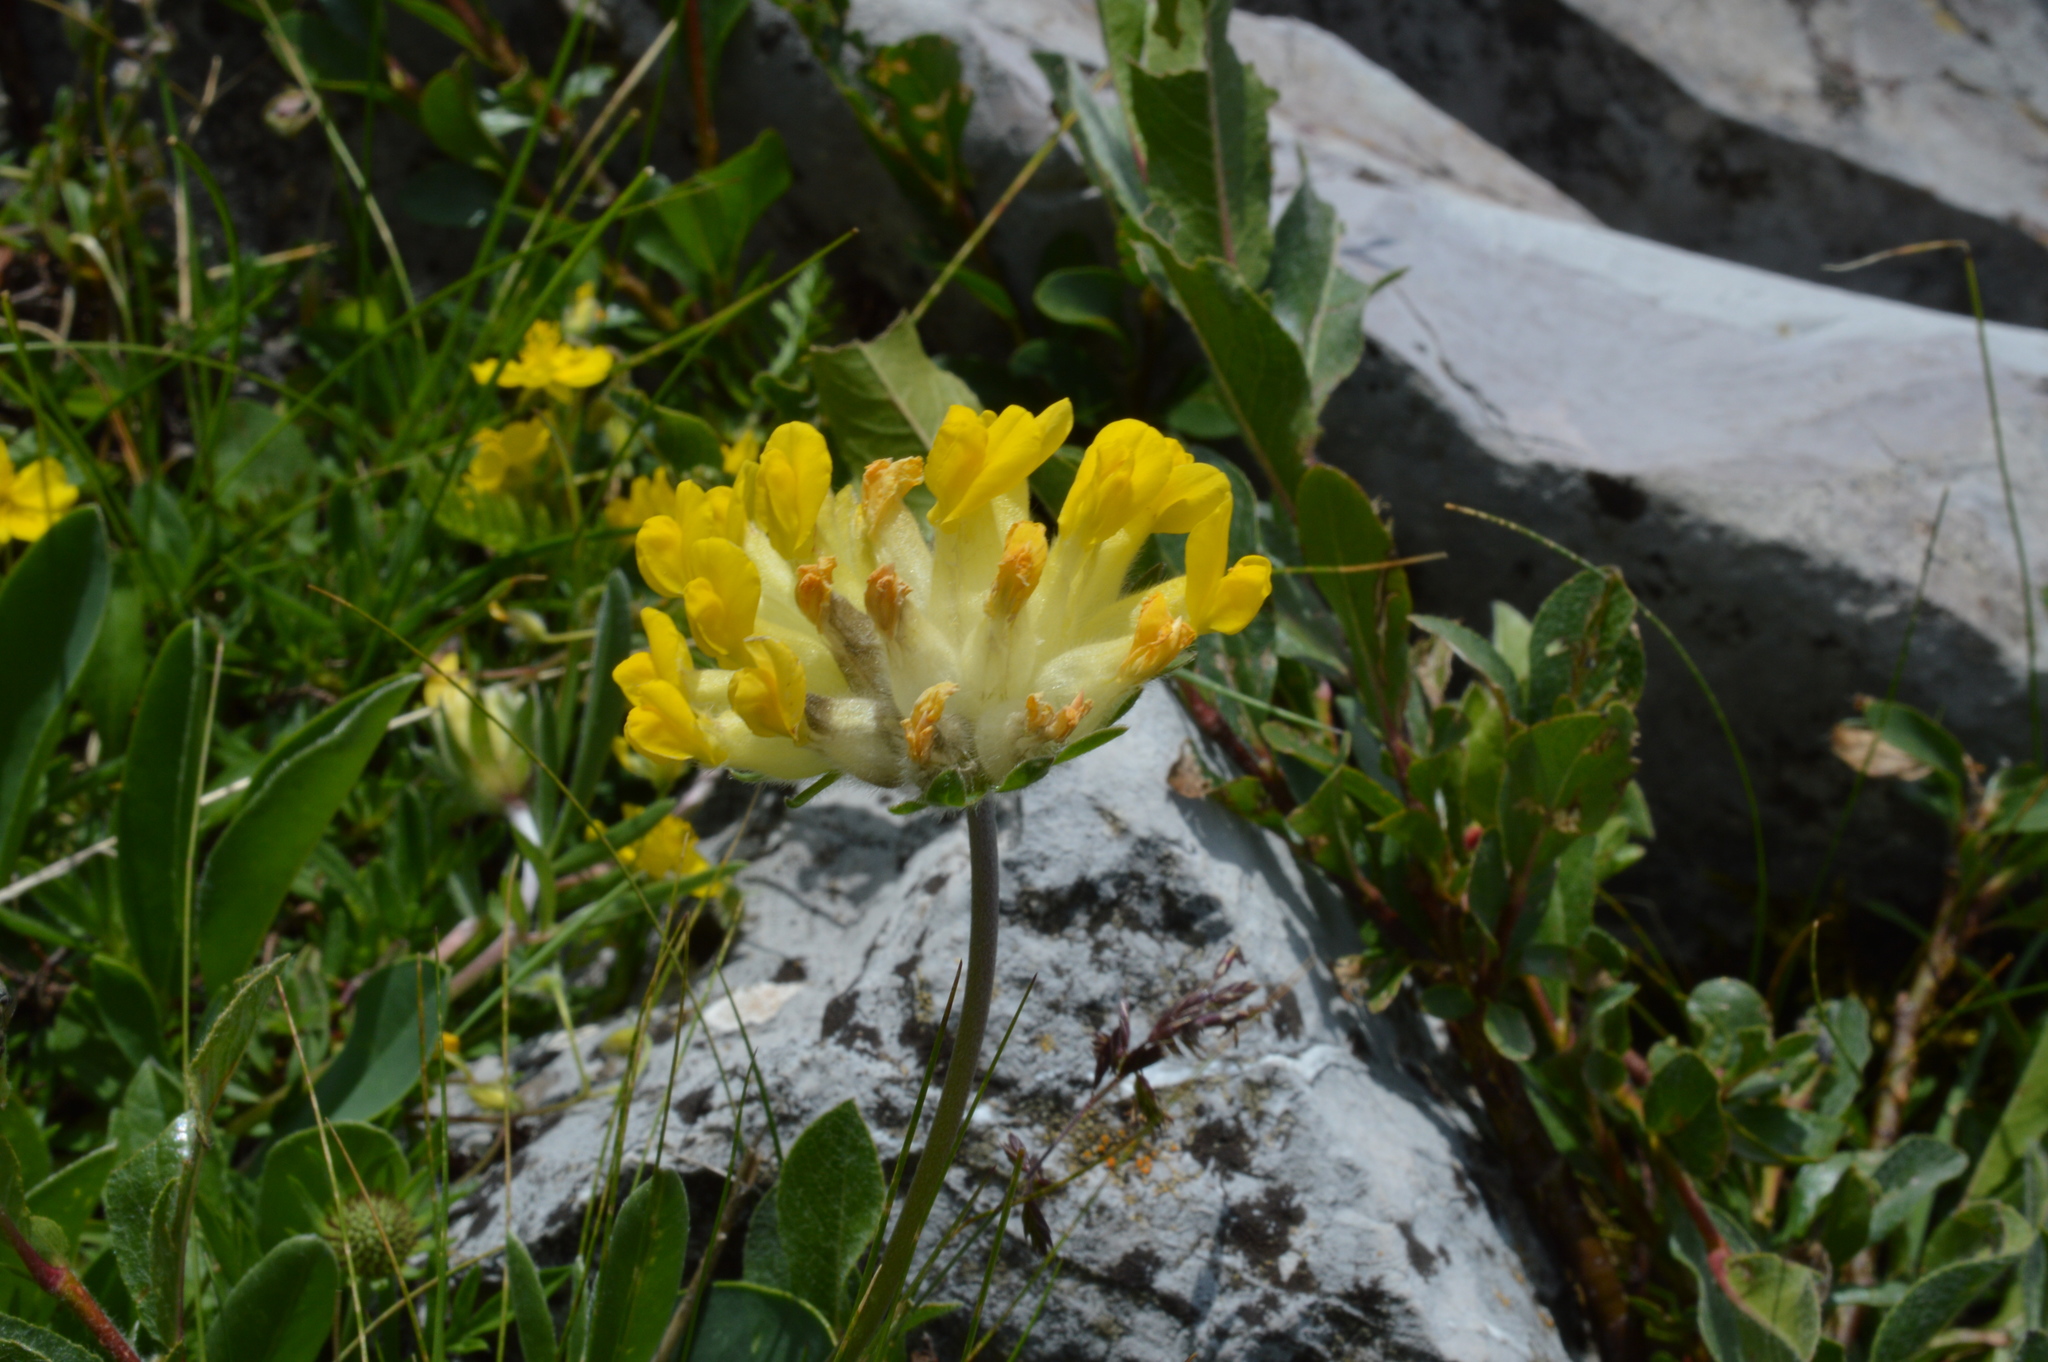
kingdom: Plantae
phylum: Tracheophyta
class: Magnoliopsida
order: Fabales
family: Fabaceae
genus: Anthyllis
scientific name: Anthyllis vulneraria
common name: Kidney vetch
